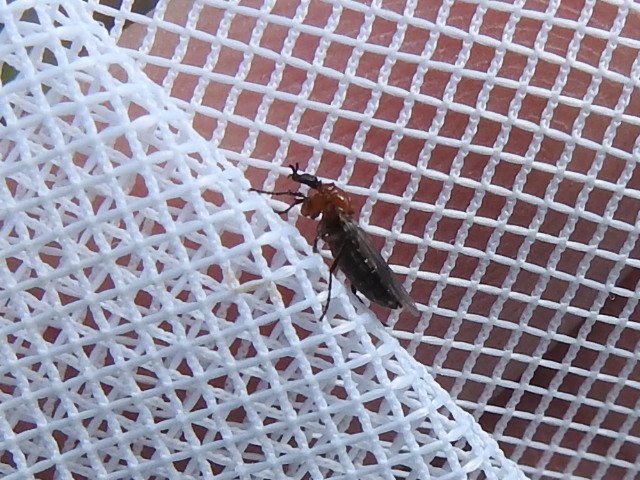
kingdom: Animalia
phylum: Arthropoda
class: Insecta
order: Diptera
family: Bibionidae
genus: Dilophus
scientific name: Dilophus tibialis
